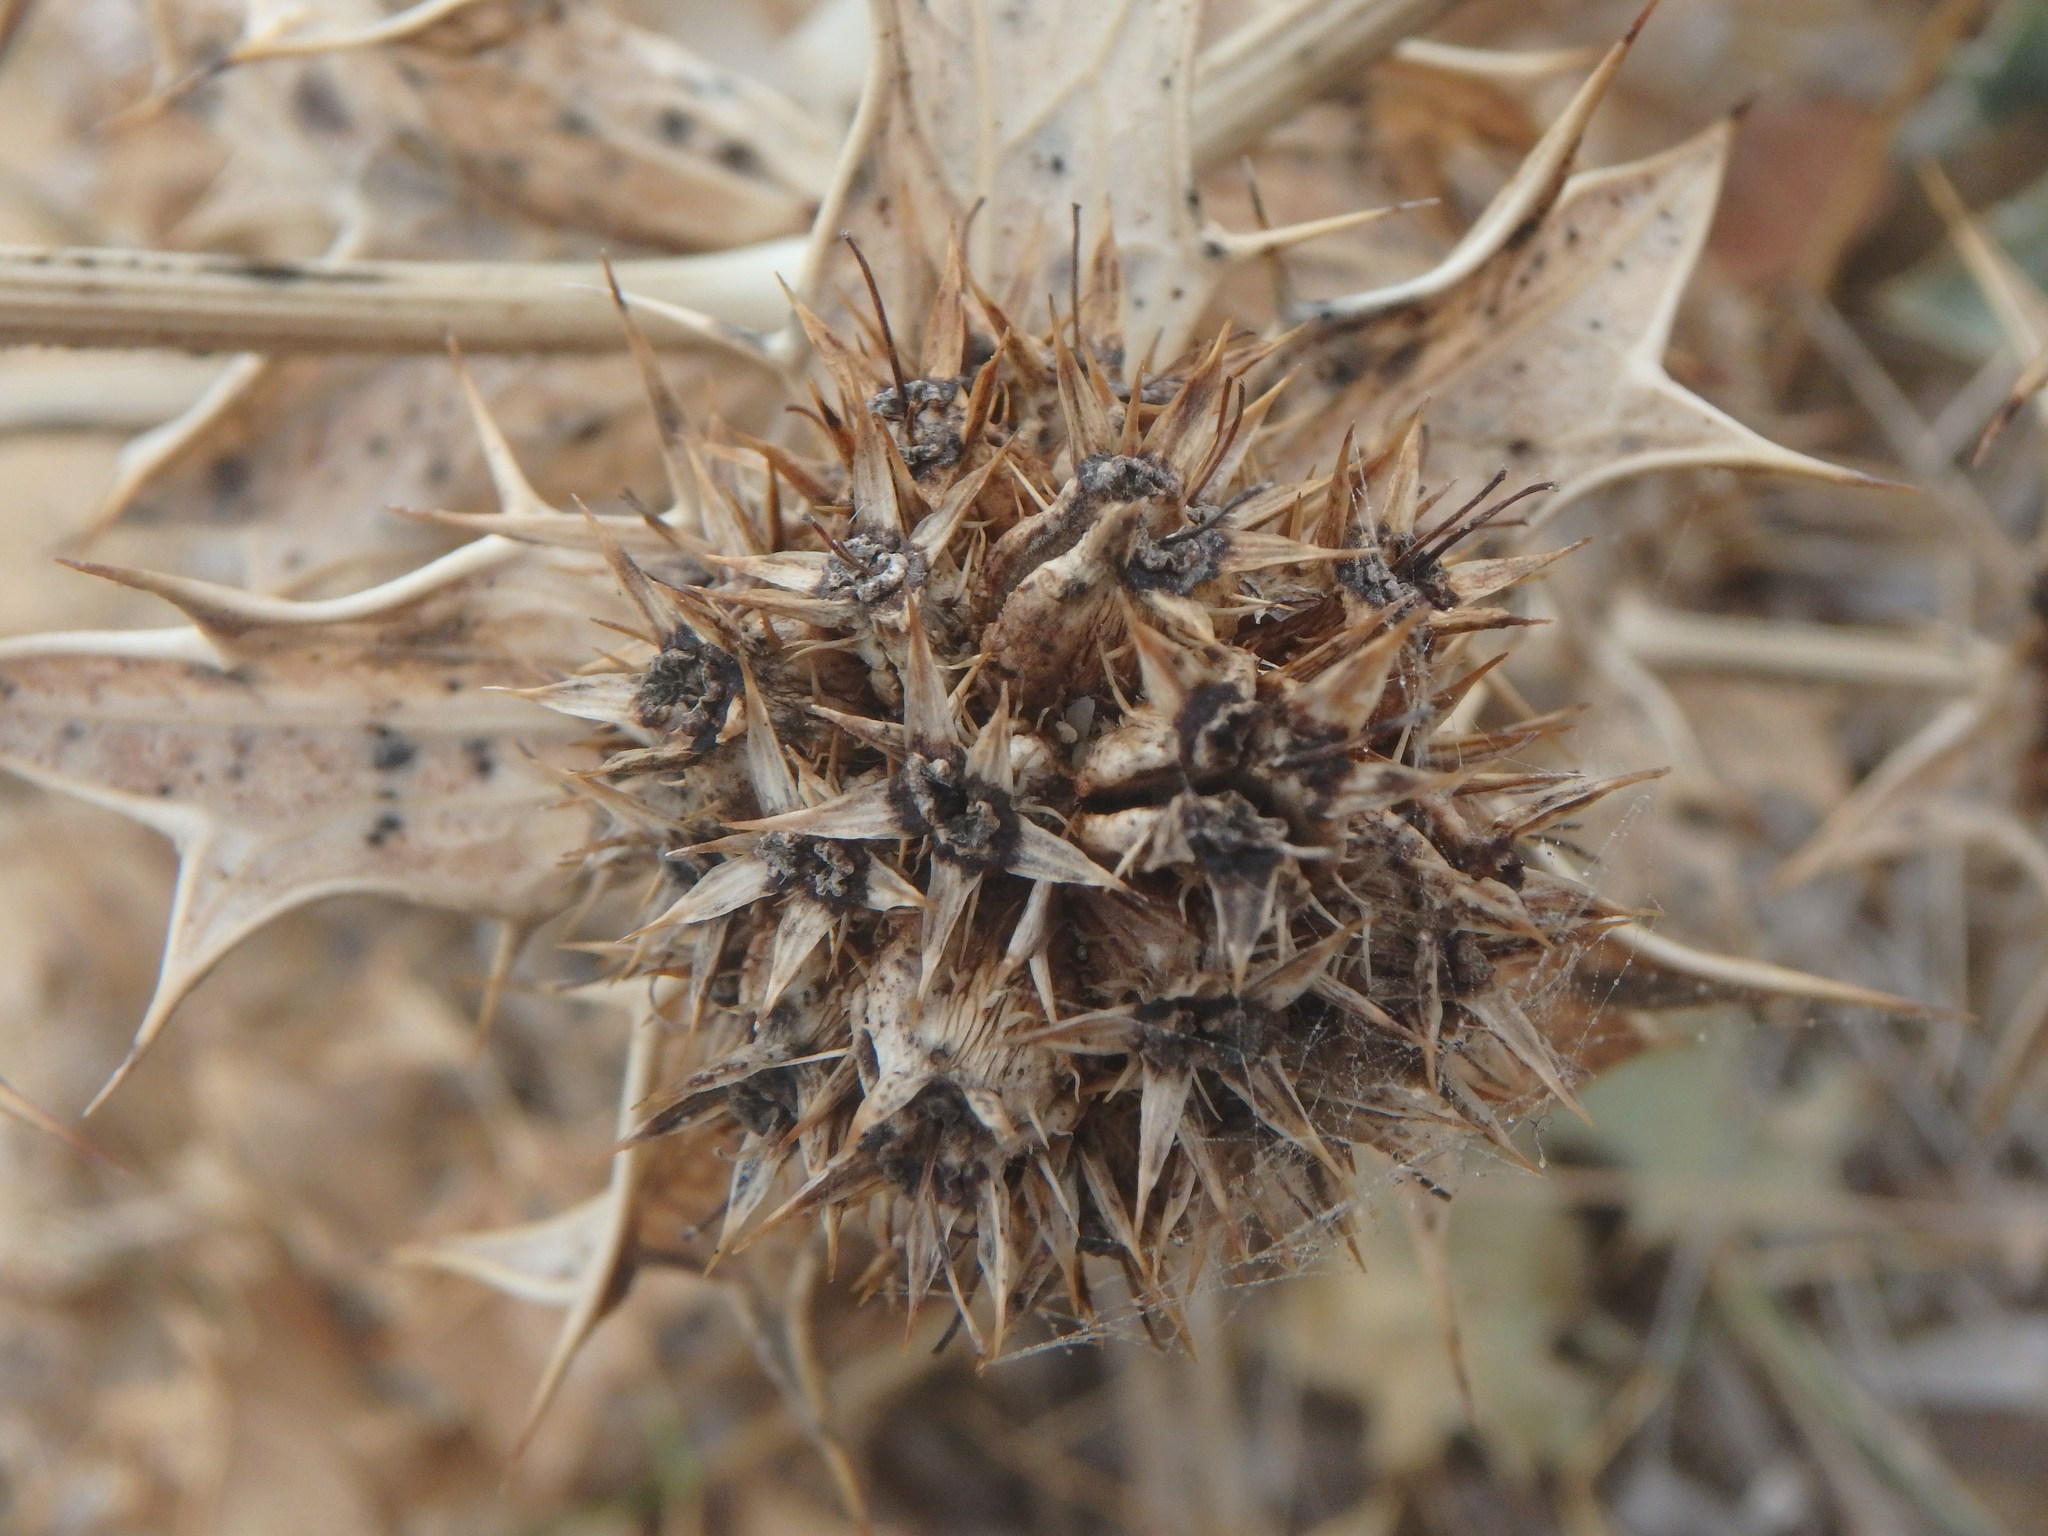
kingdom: Plantae
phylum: Tracheophyta
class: Magnoliopsida
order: Apiales
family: Apiaceae
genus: Eryngium
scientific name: Eryngium maritimum
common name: Sea-holly
